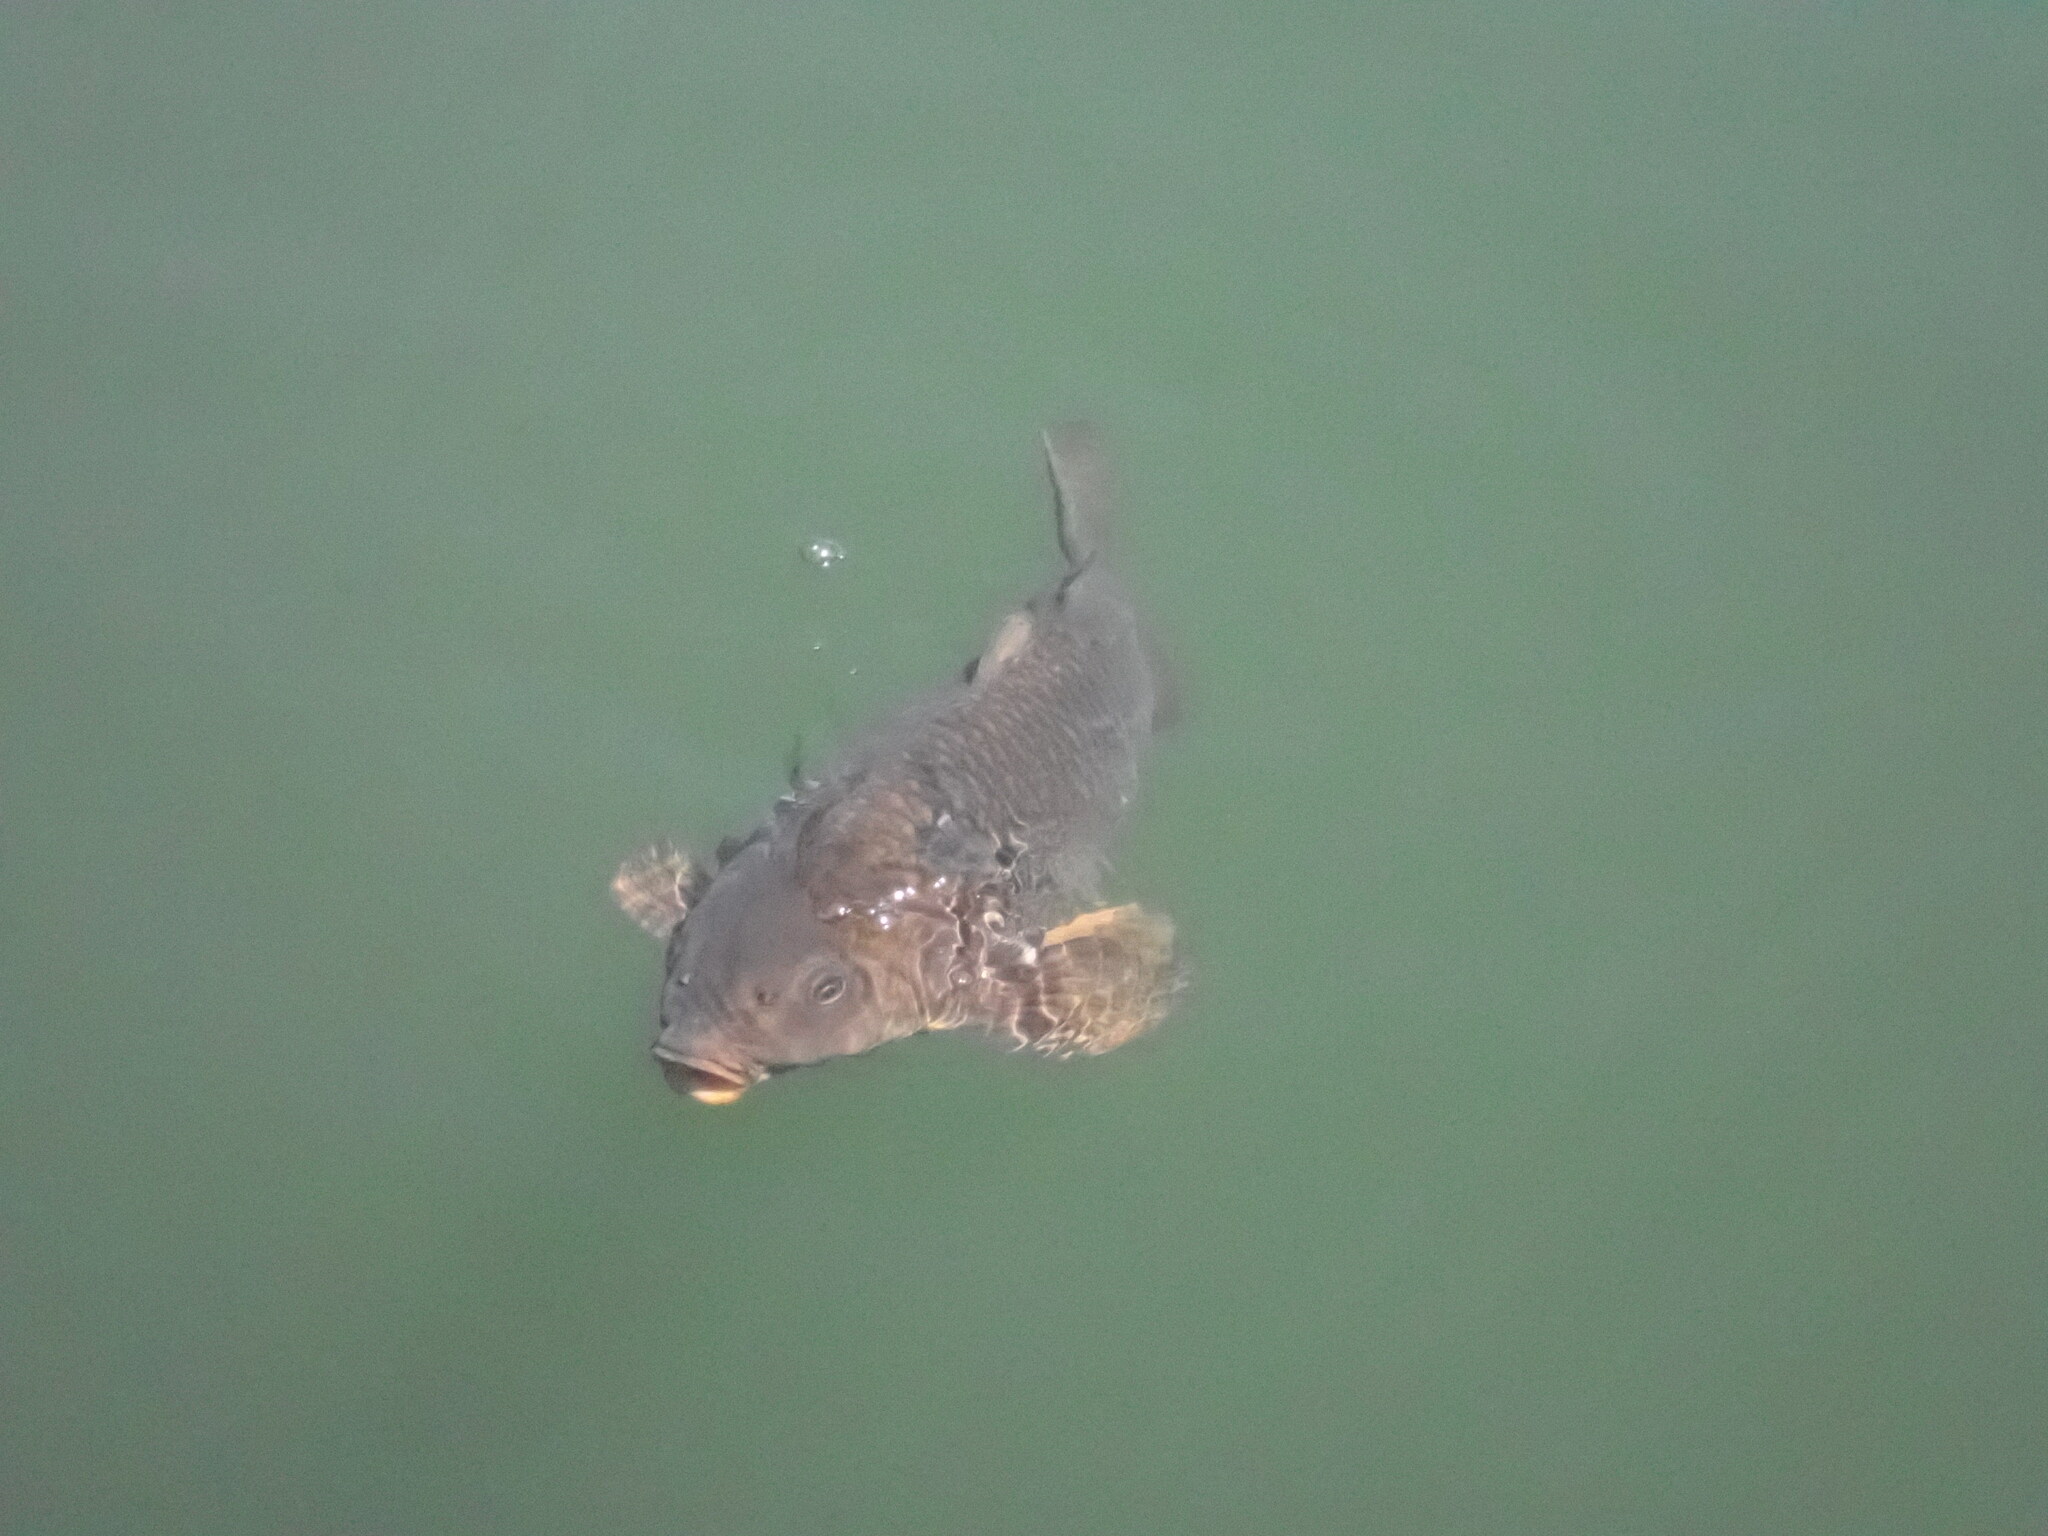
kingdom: Animalia
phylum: Chordata
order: Cypriniformes
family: Cyprinidae
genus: Cyprinus
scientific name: Cyprinus carpio
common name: Common carp
